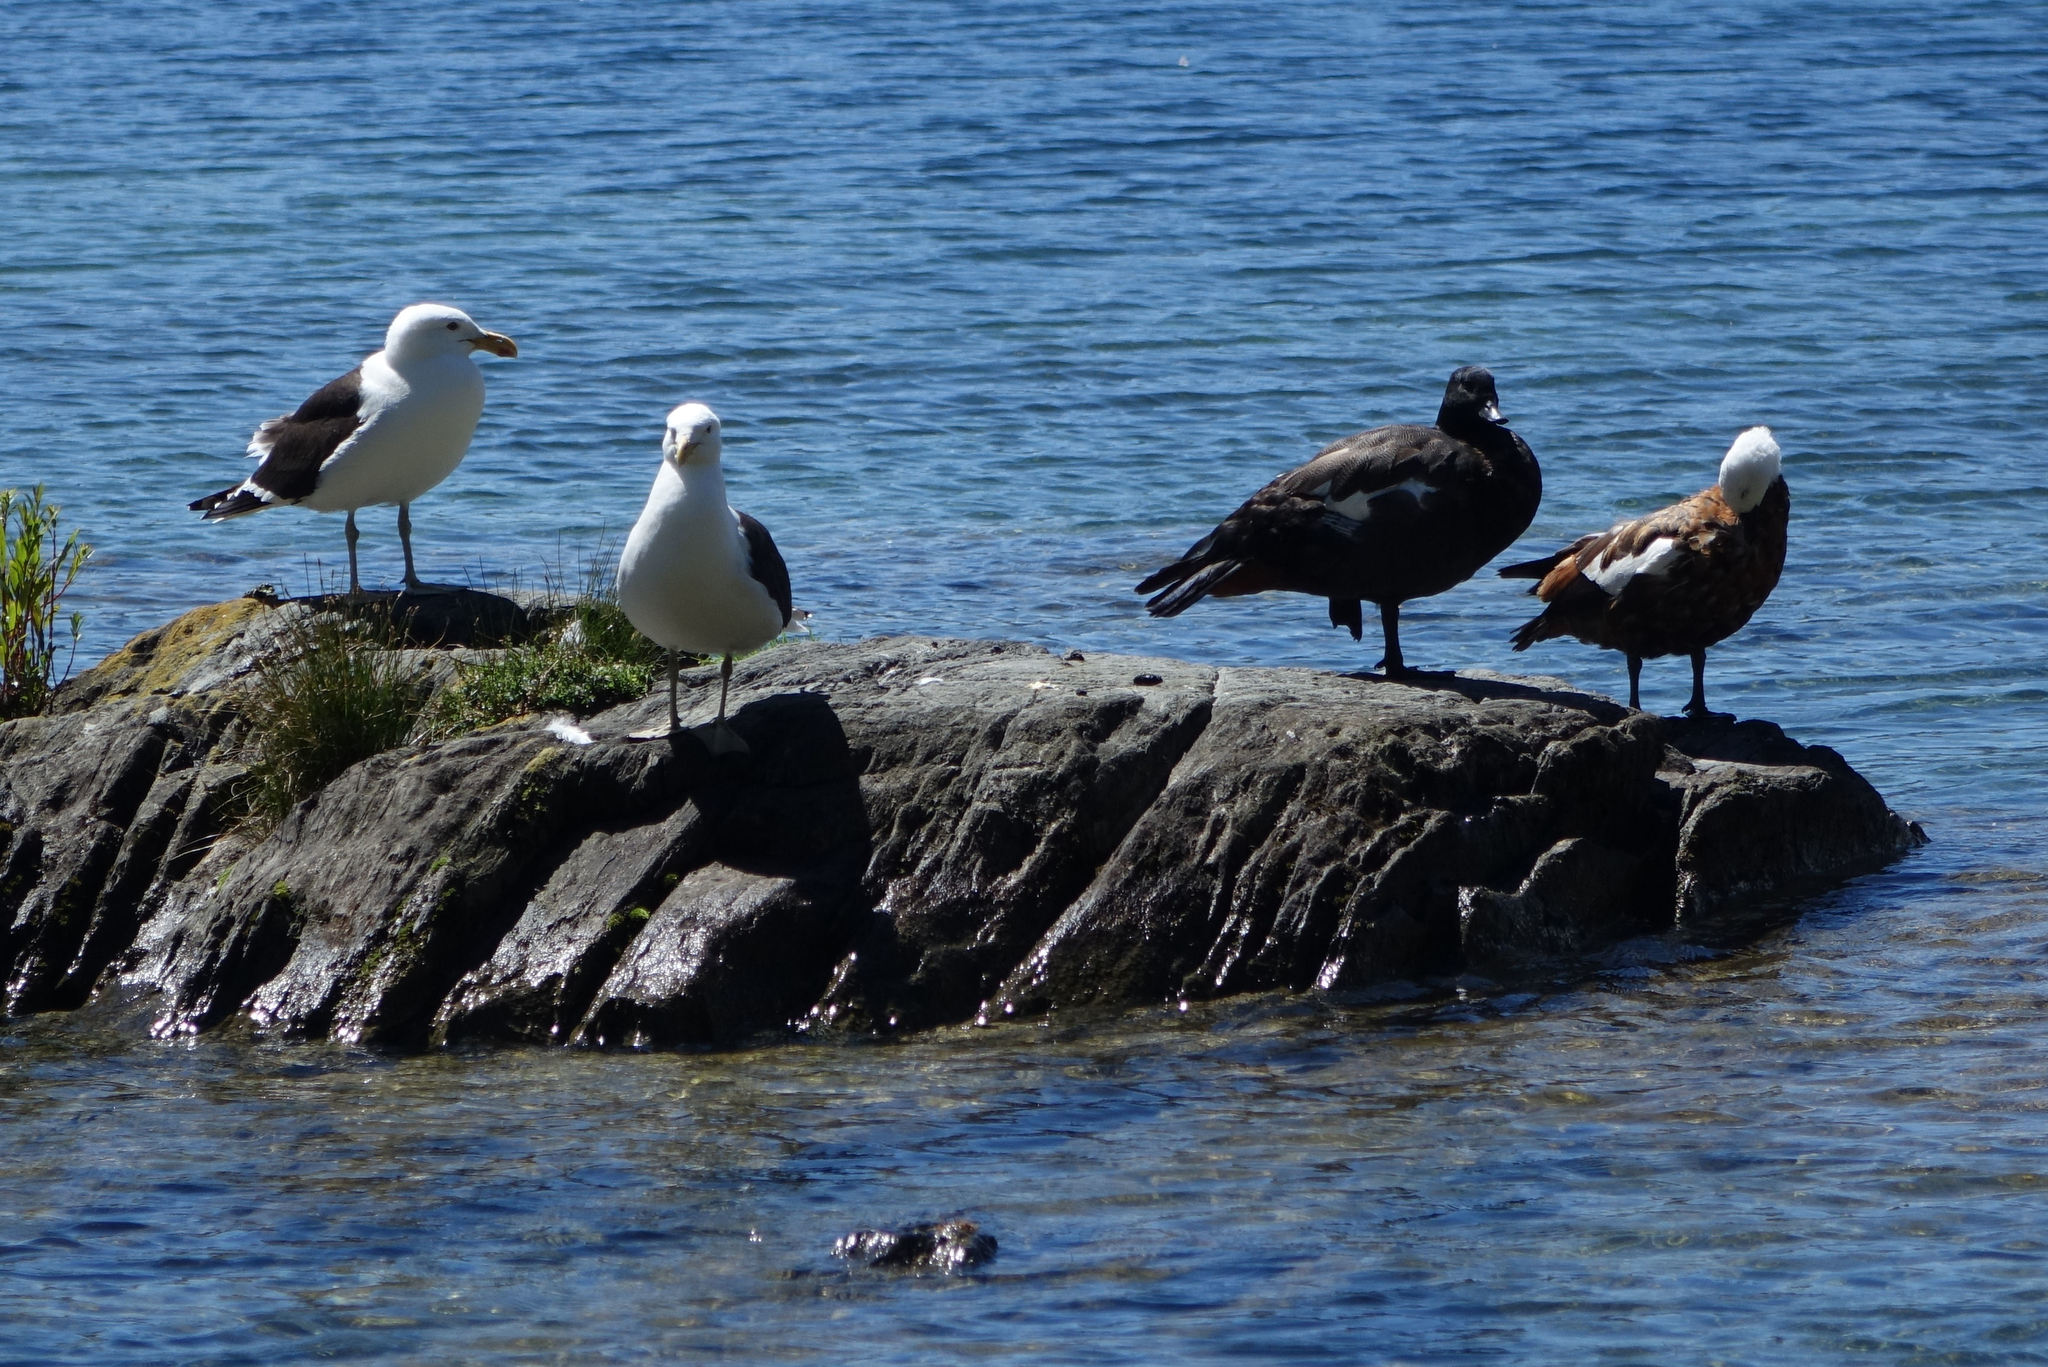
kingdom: Animalia
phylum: Chordata
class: Aves
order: Anseriformes
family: Anatidae
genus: Tadorna
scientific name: Tadorna variegata
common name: Paradise shelduck
